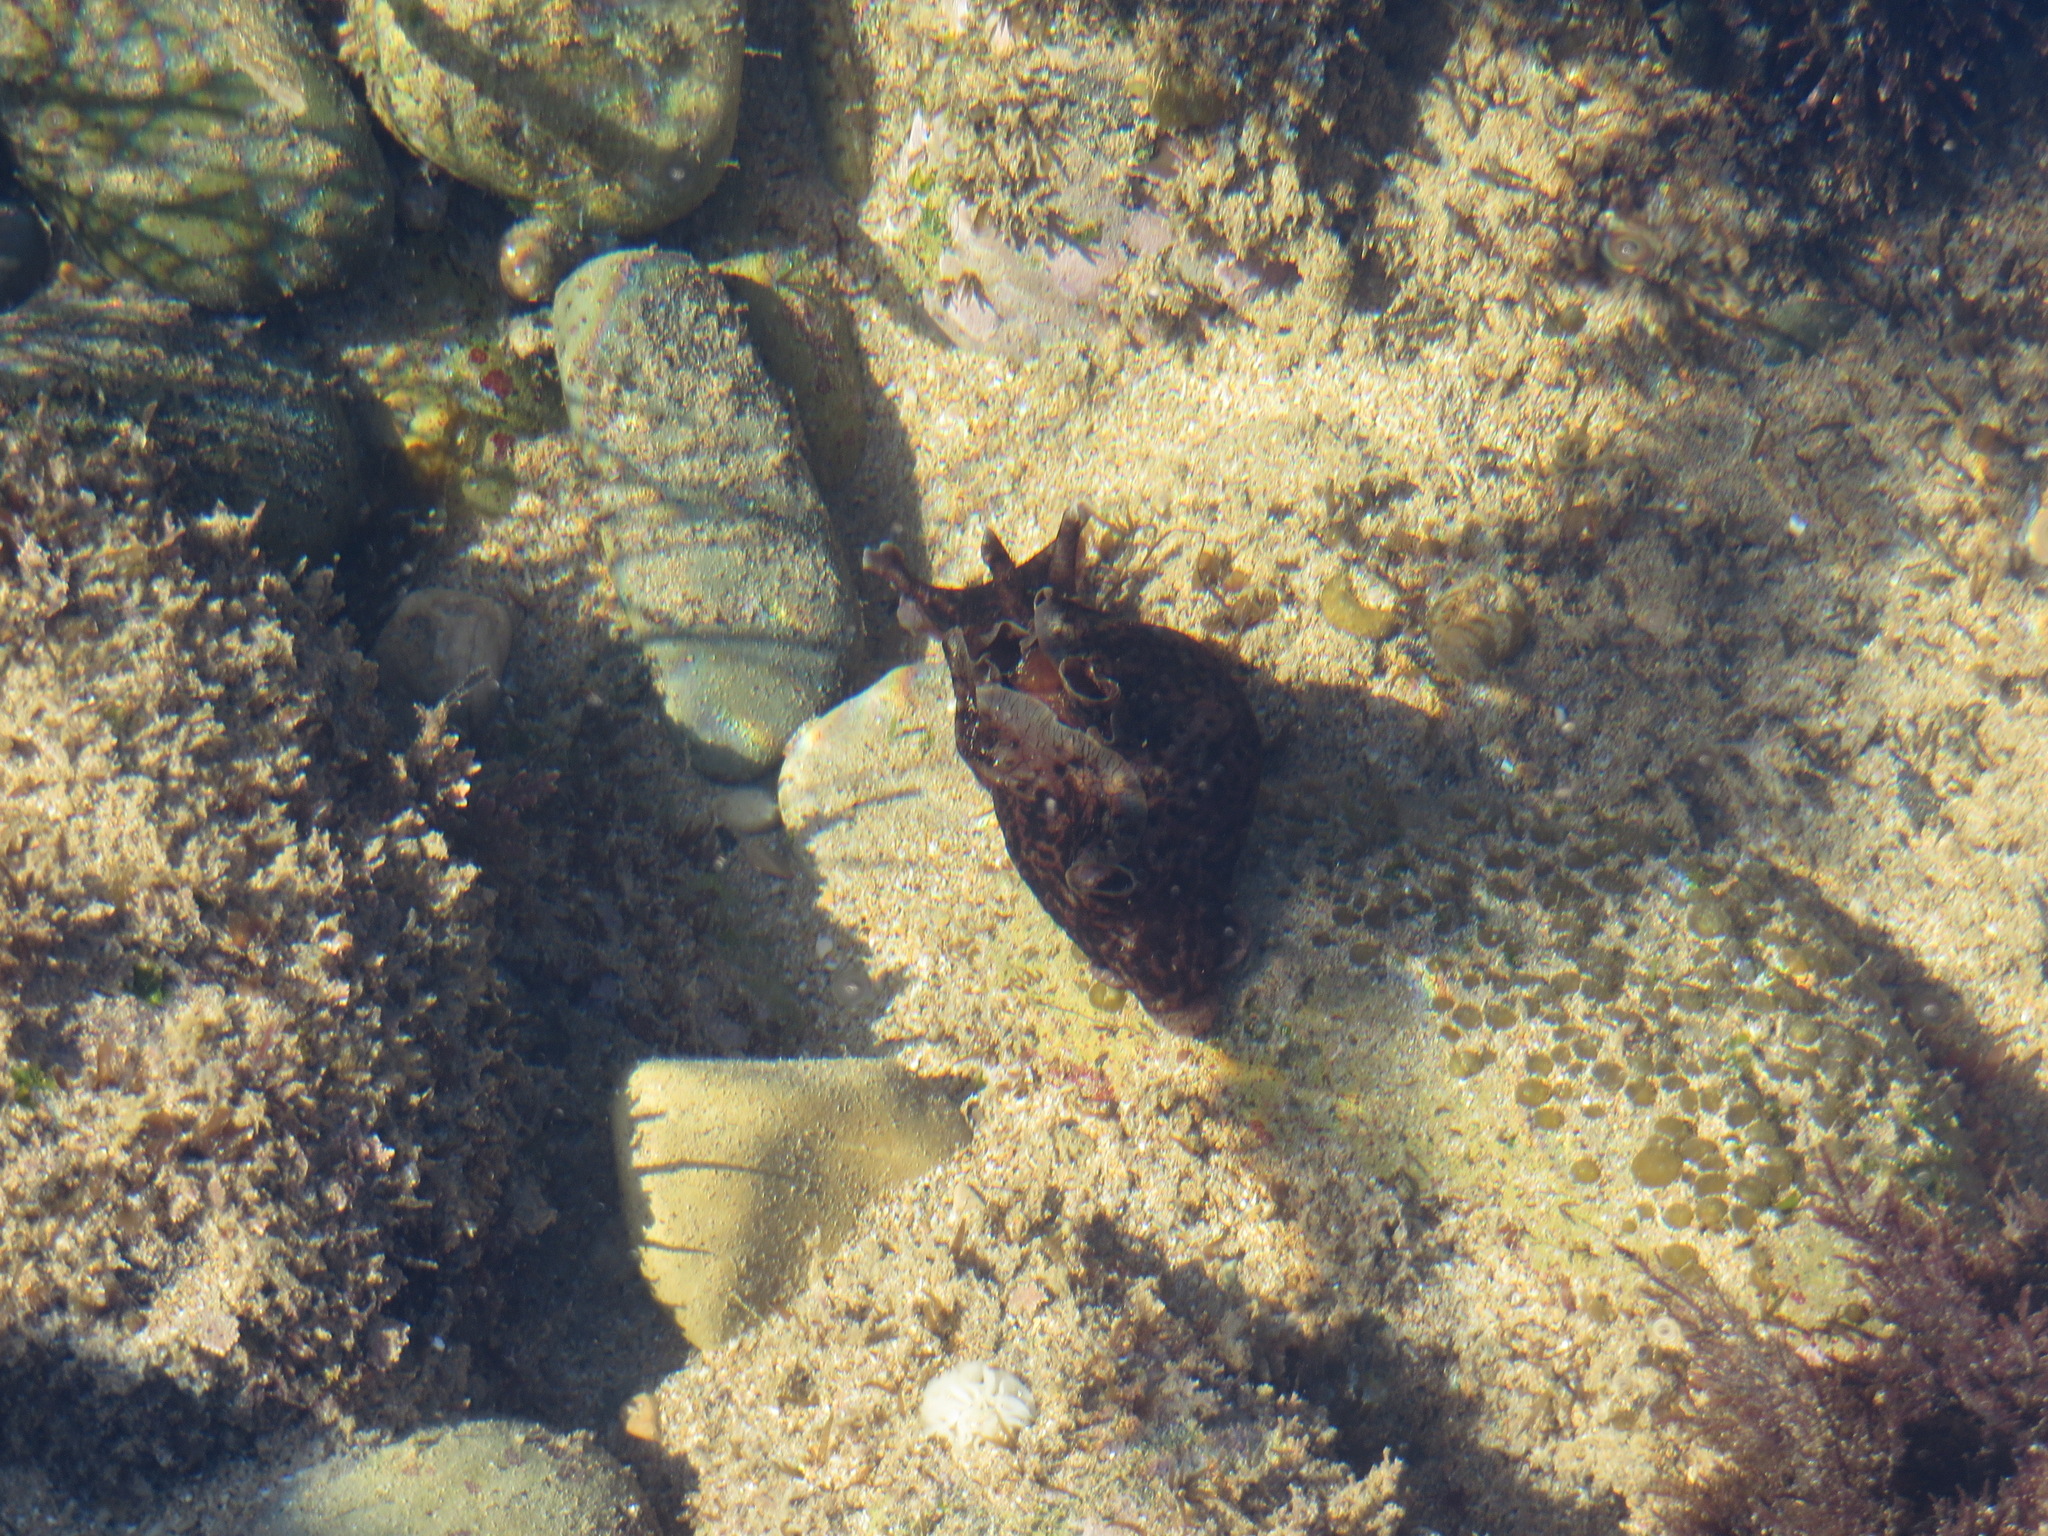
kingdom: Animalia
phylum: Mollusca
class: Gastropoda
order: Aplysiida
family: Aplysiidae
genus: Aplysia
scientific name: Aplysia californica
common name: California seahare
